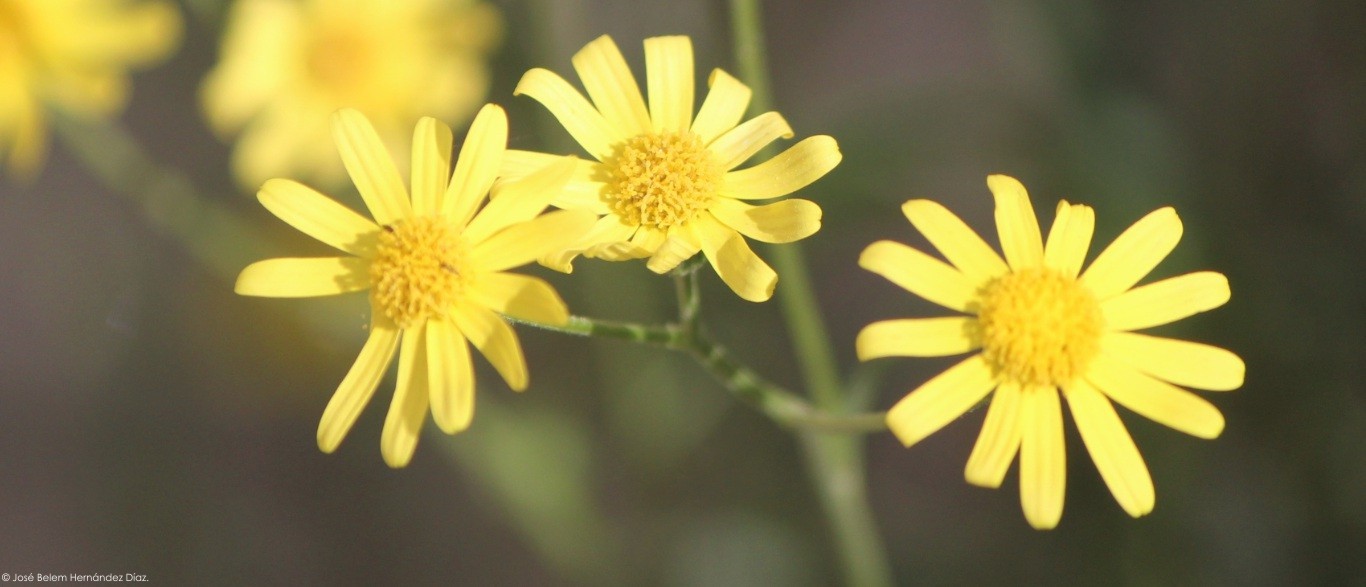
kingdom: Plantae
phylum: Tracheophyta
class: Magnoliopsida
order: Asterales
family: Asteraceae
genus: Senecio
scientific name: Senecio inaequidens
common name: Narrow-leaved ragwort
